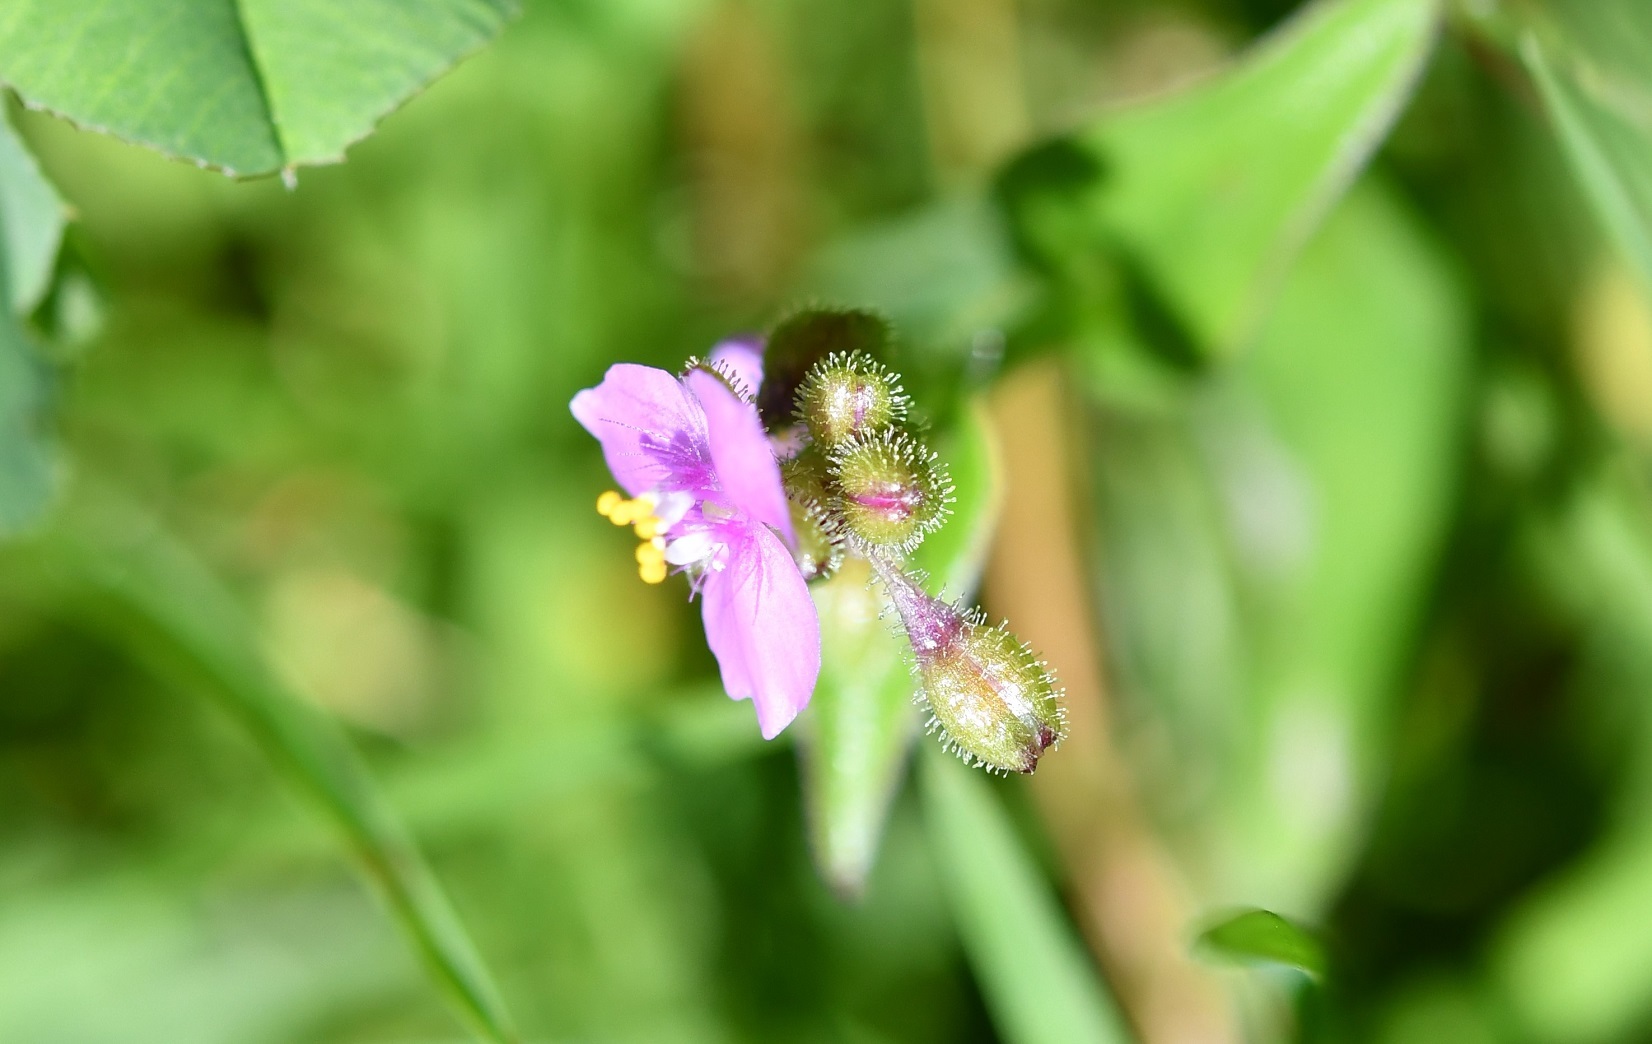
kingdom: Plantae
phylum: Tracheophyta
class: Liliopsida
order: Commelinales
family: Commelinaceae
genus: Callisia
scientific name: Callisia purpurascens
